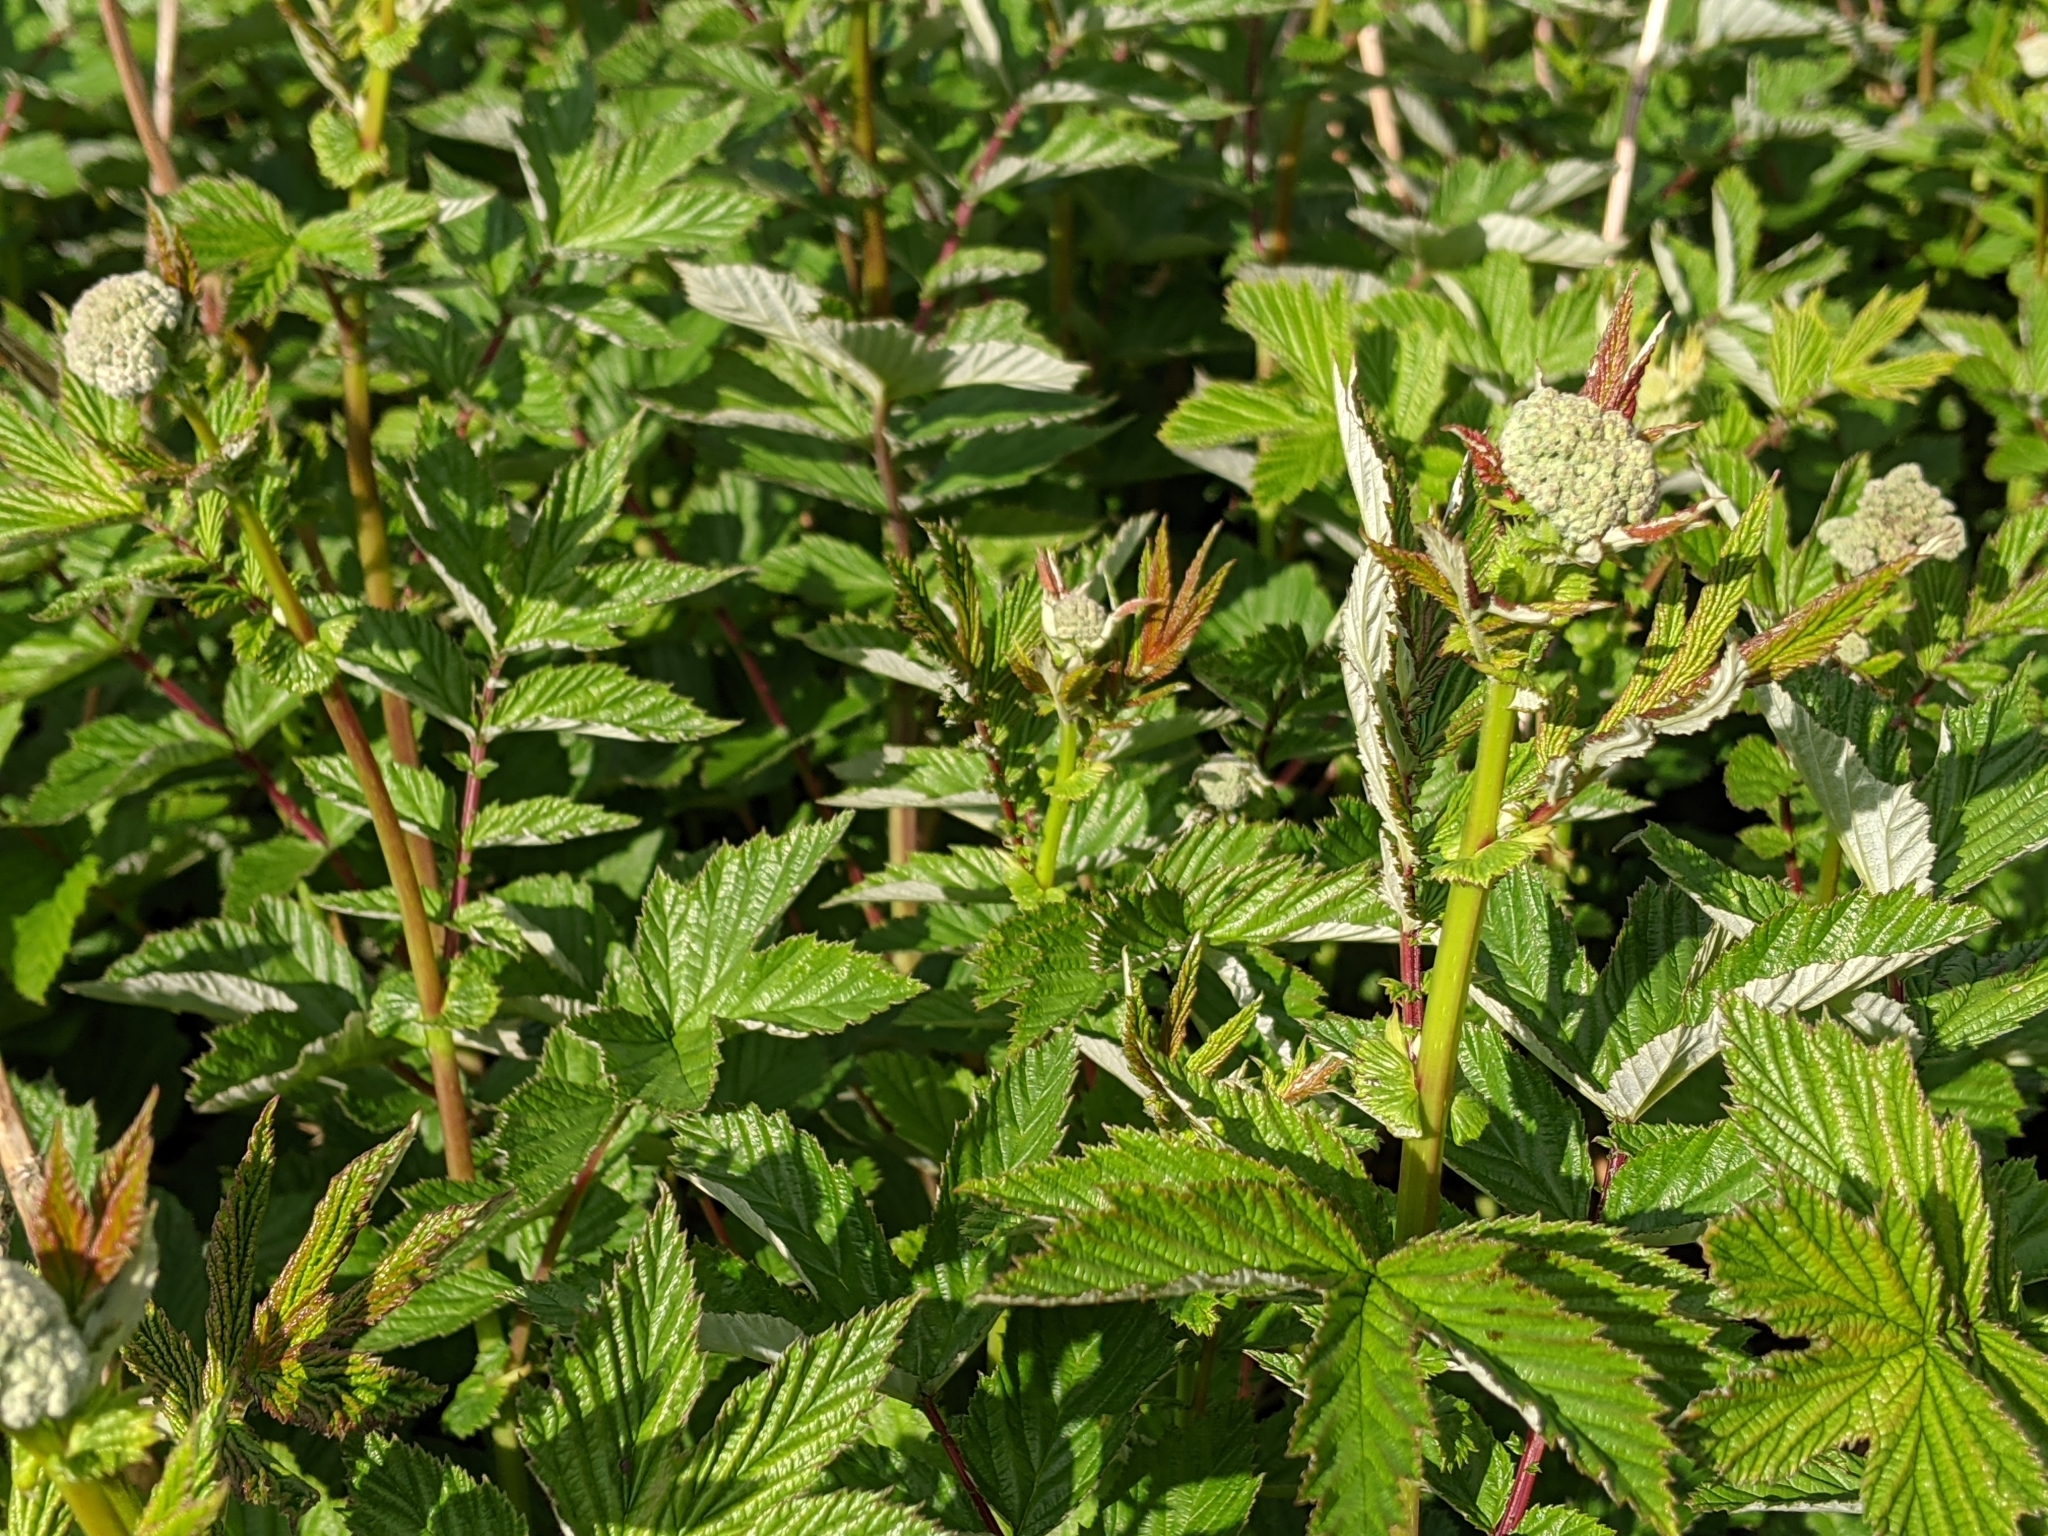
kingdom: Plantae
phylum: Tracheophyta
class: Magnoliopsida
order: Rosales
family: Rosaceae
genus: Filipendula
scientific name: Filipendula ulmaria
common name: Meadowsweet
